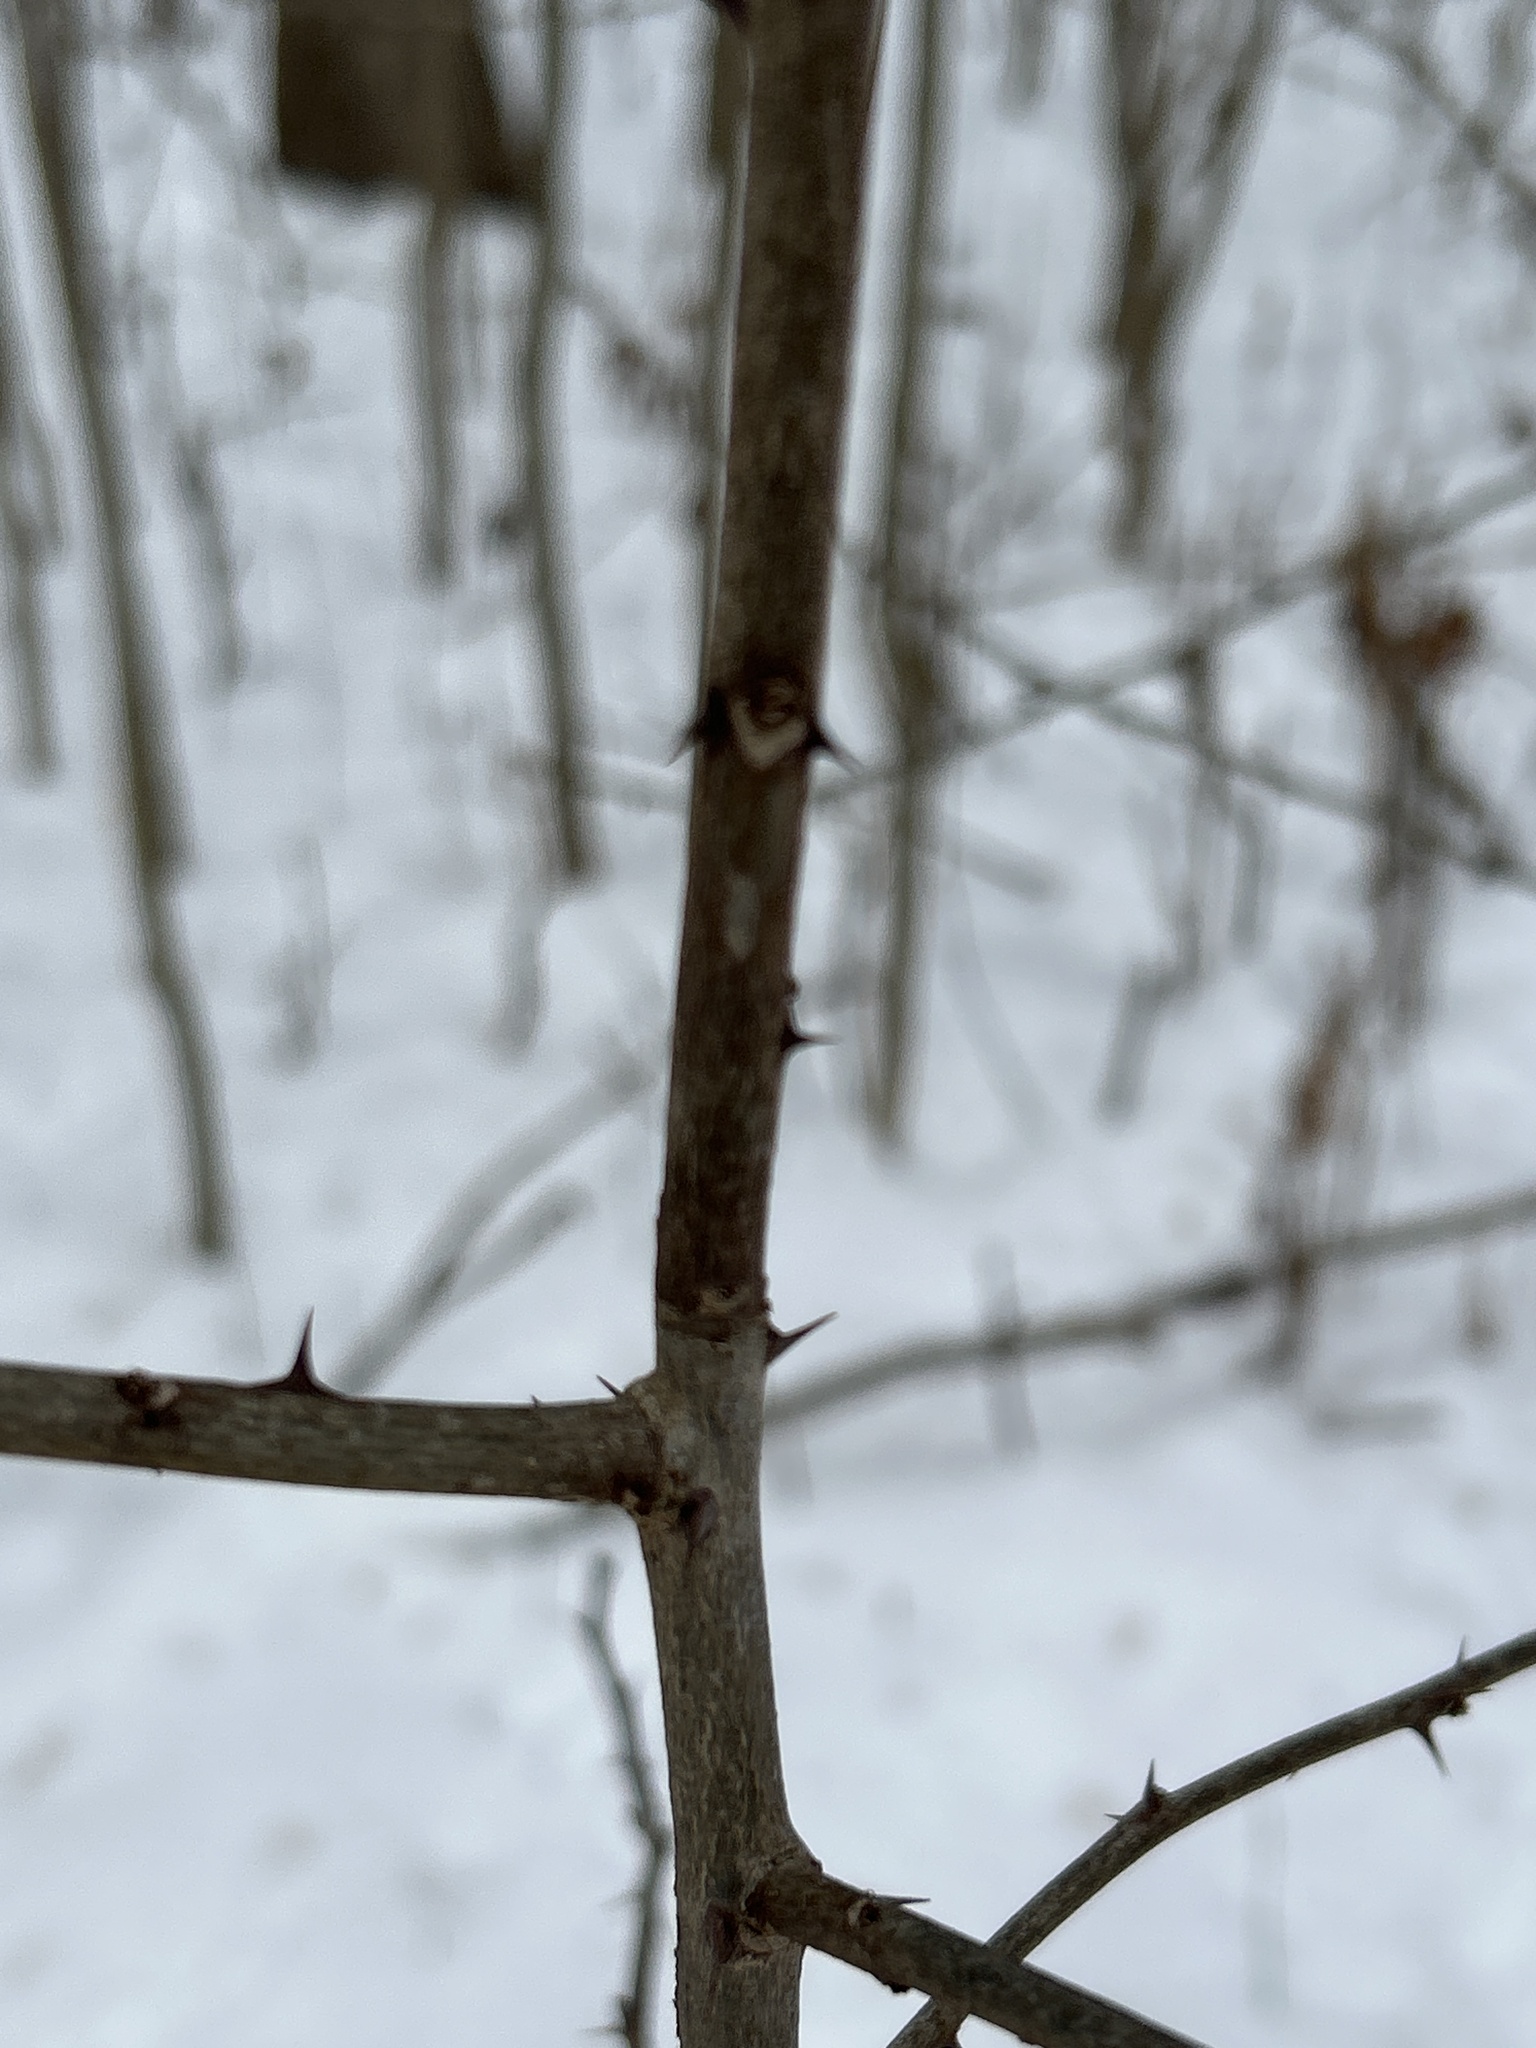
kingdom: Plantae
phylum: Tracheophyta
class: Magnoliopsida
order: Sapindales
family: Rutaceae
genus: Zanthoxylum
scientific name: Zanthoxylum americanum
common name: Northern prickly-ash
